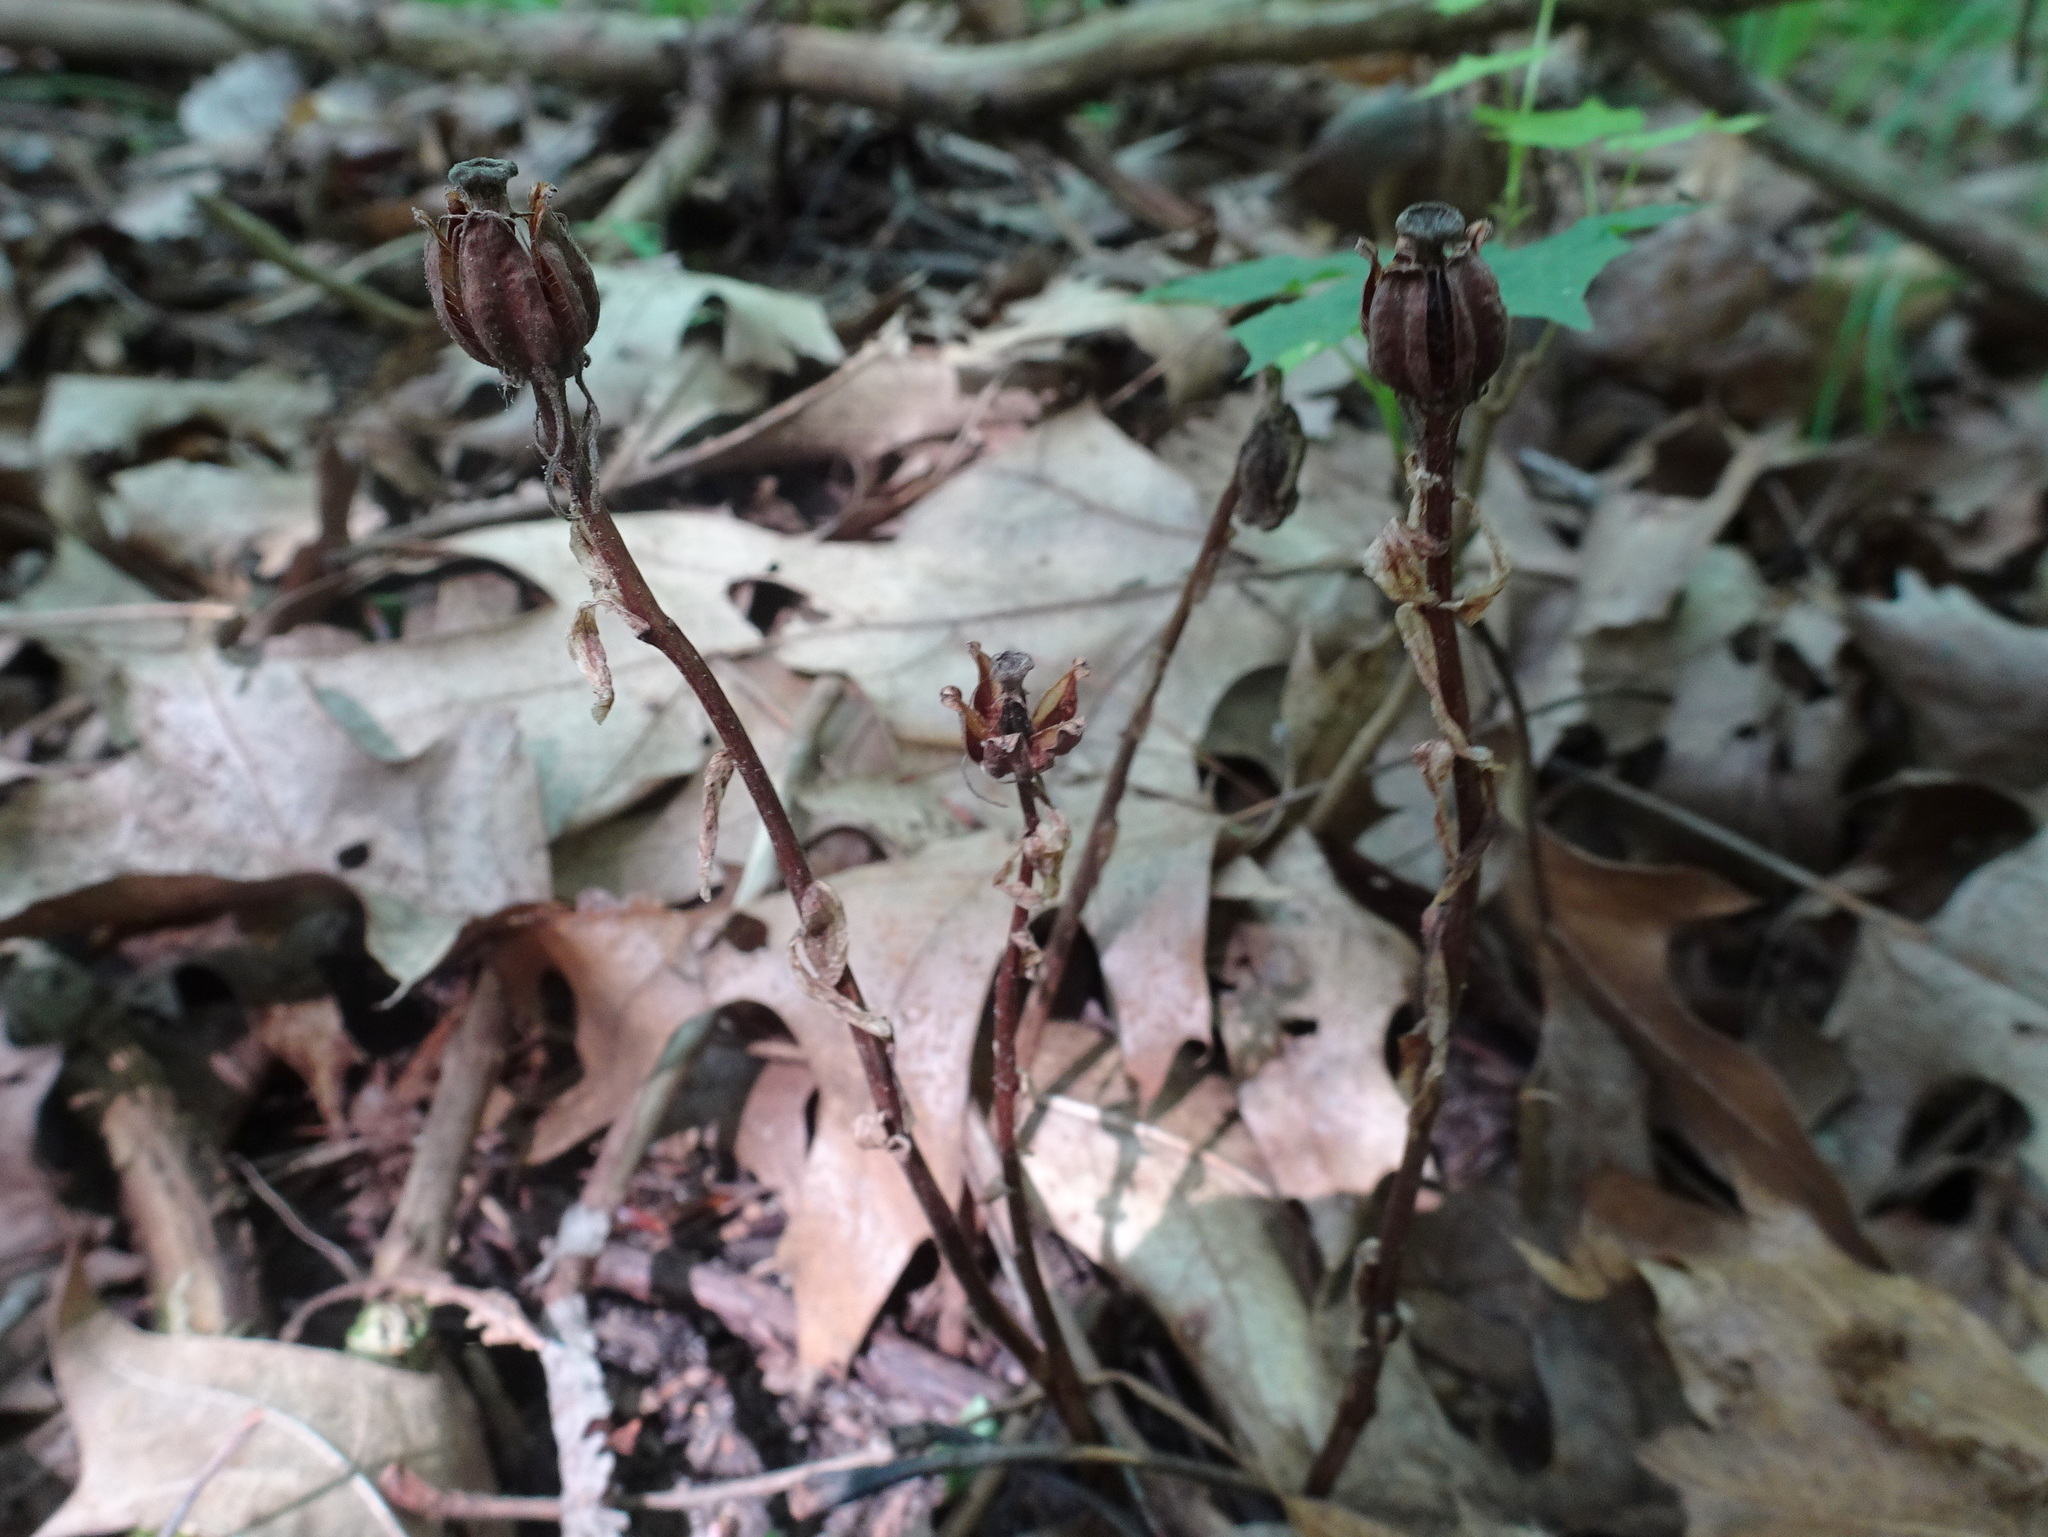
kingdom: Plantae
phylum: Tracheophyta
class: Magnoliopsida
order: Ericales
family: Ericaceae
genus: Monotropa
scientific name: Monotropa uniflora
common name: Convulsion root
